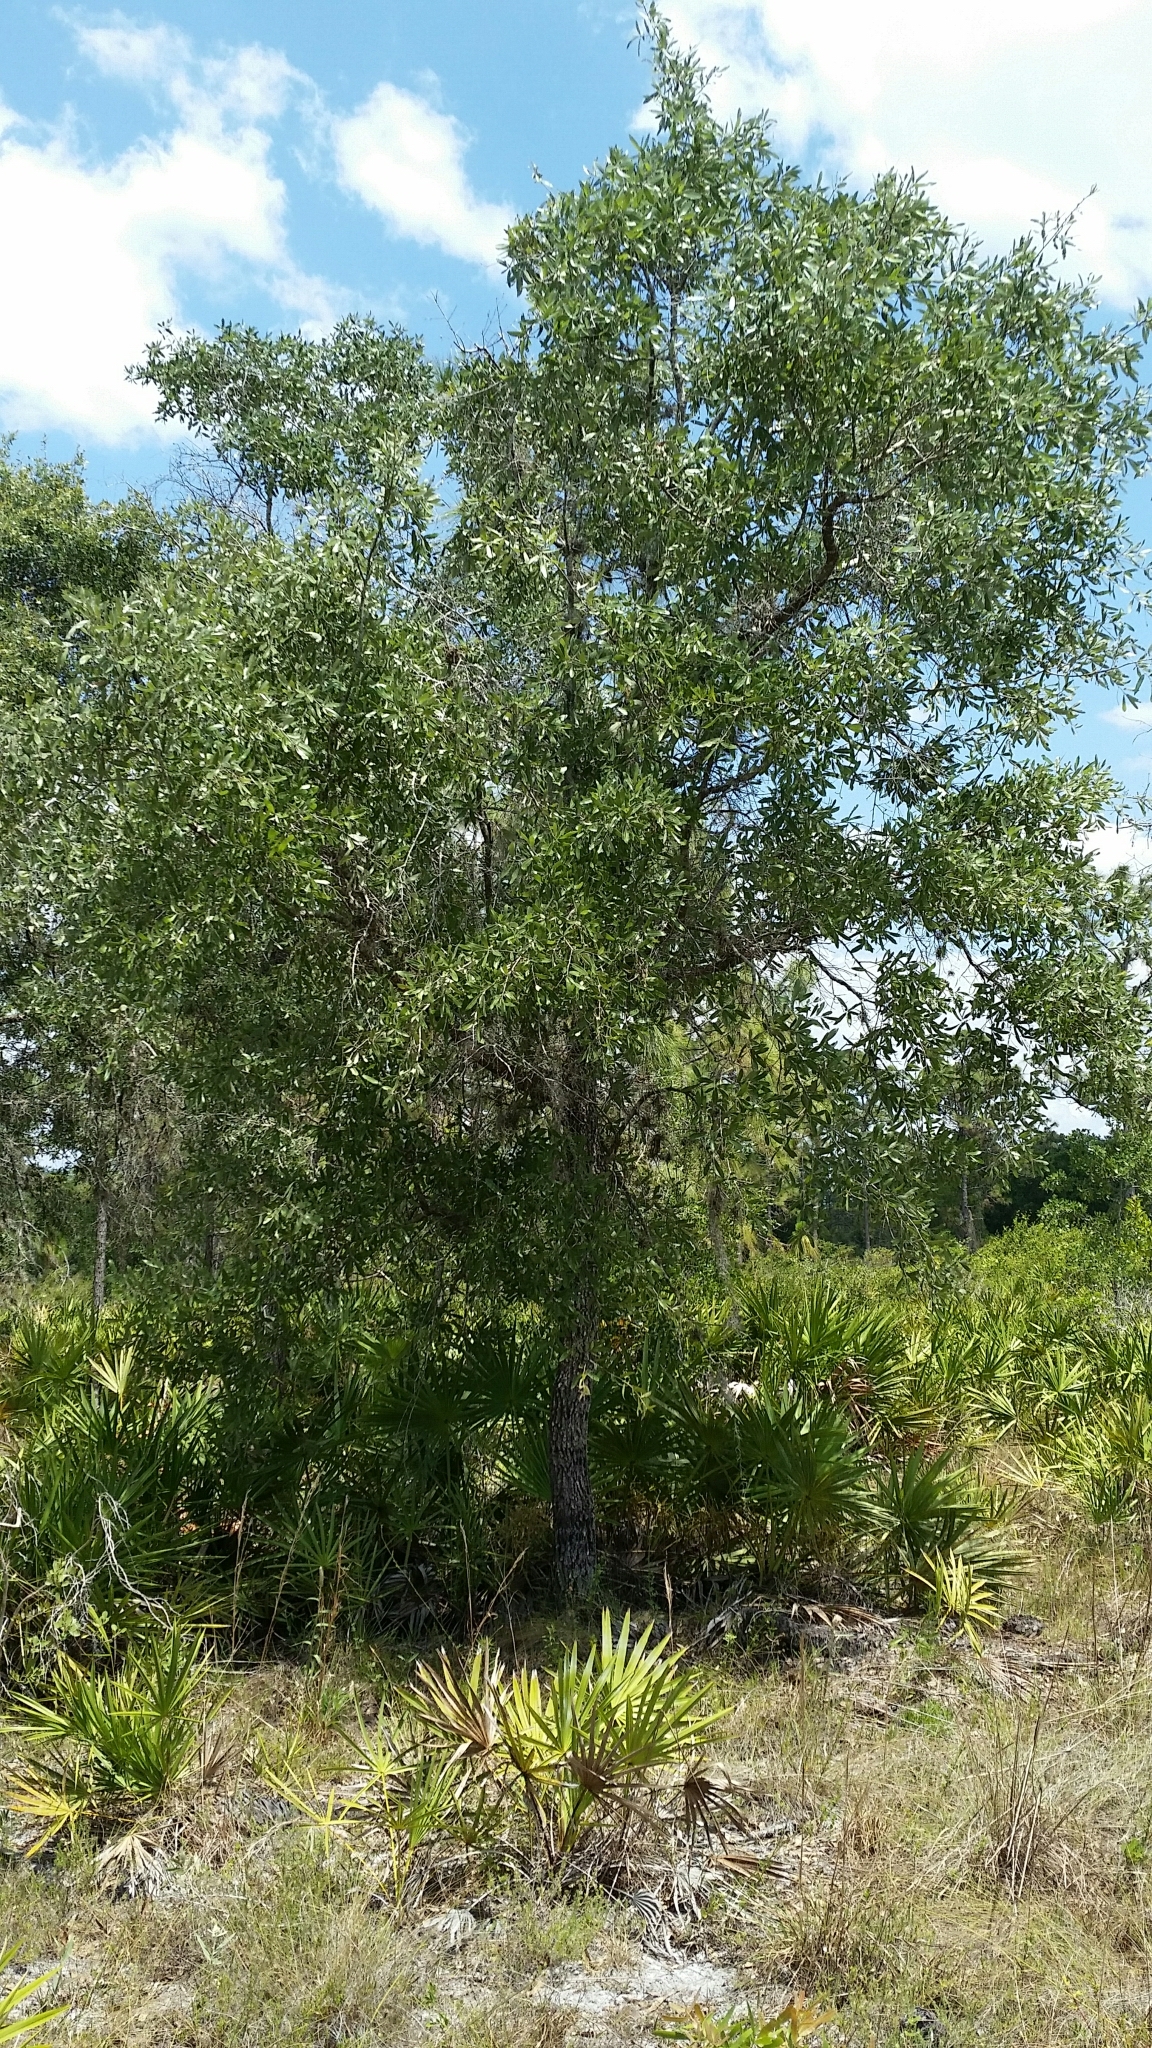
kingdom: Plantae
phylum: Tracheophyta
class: Magnoliopsida
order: Fagales
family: Fagaceae
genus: Quercus
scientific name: Quercus incana
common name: Bluejack oak
